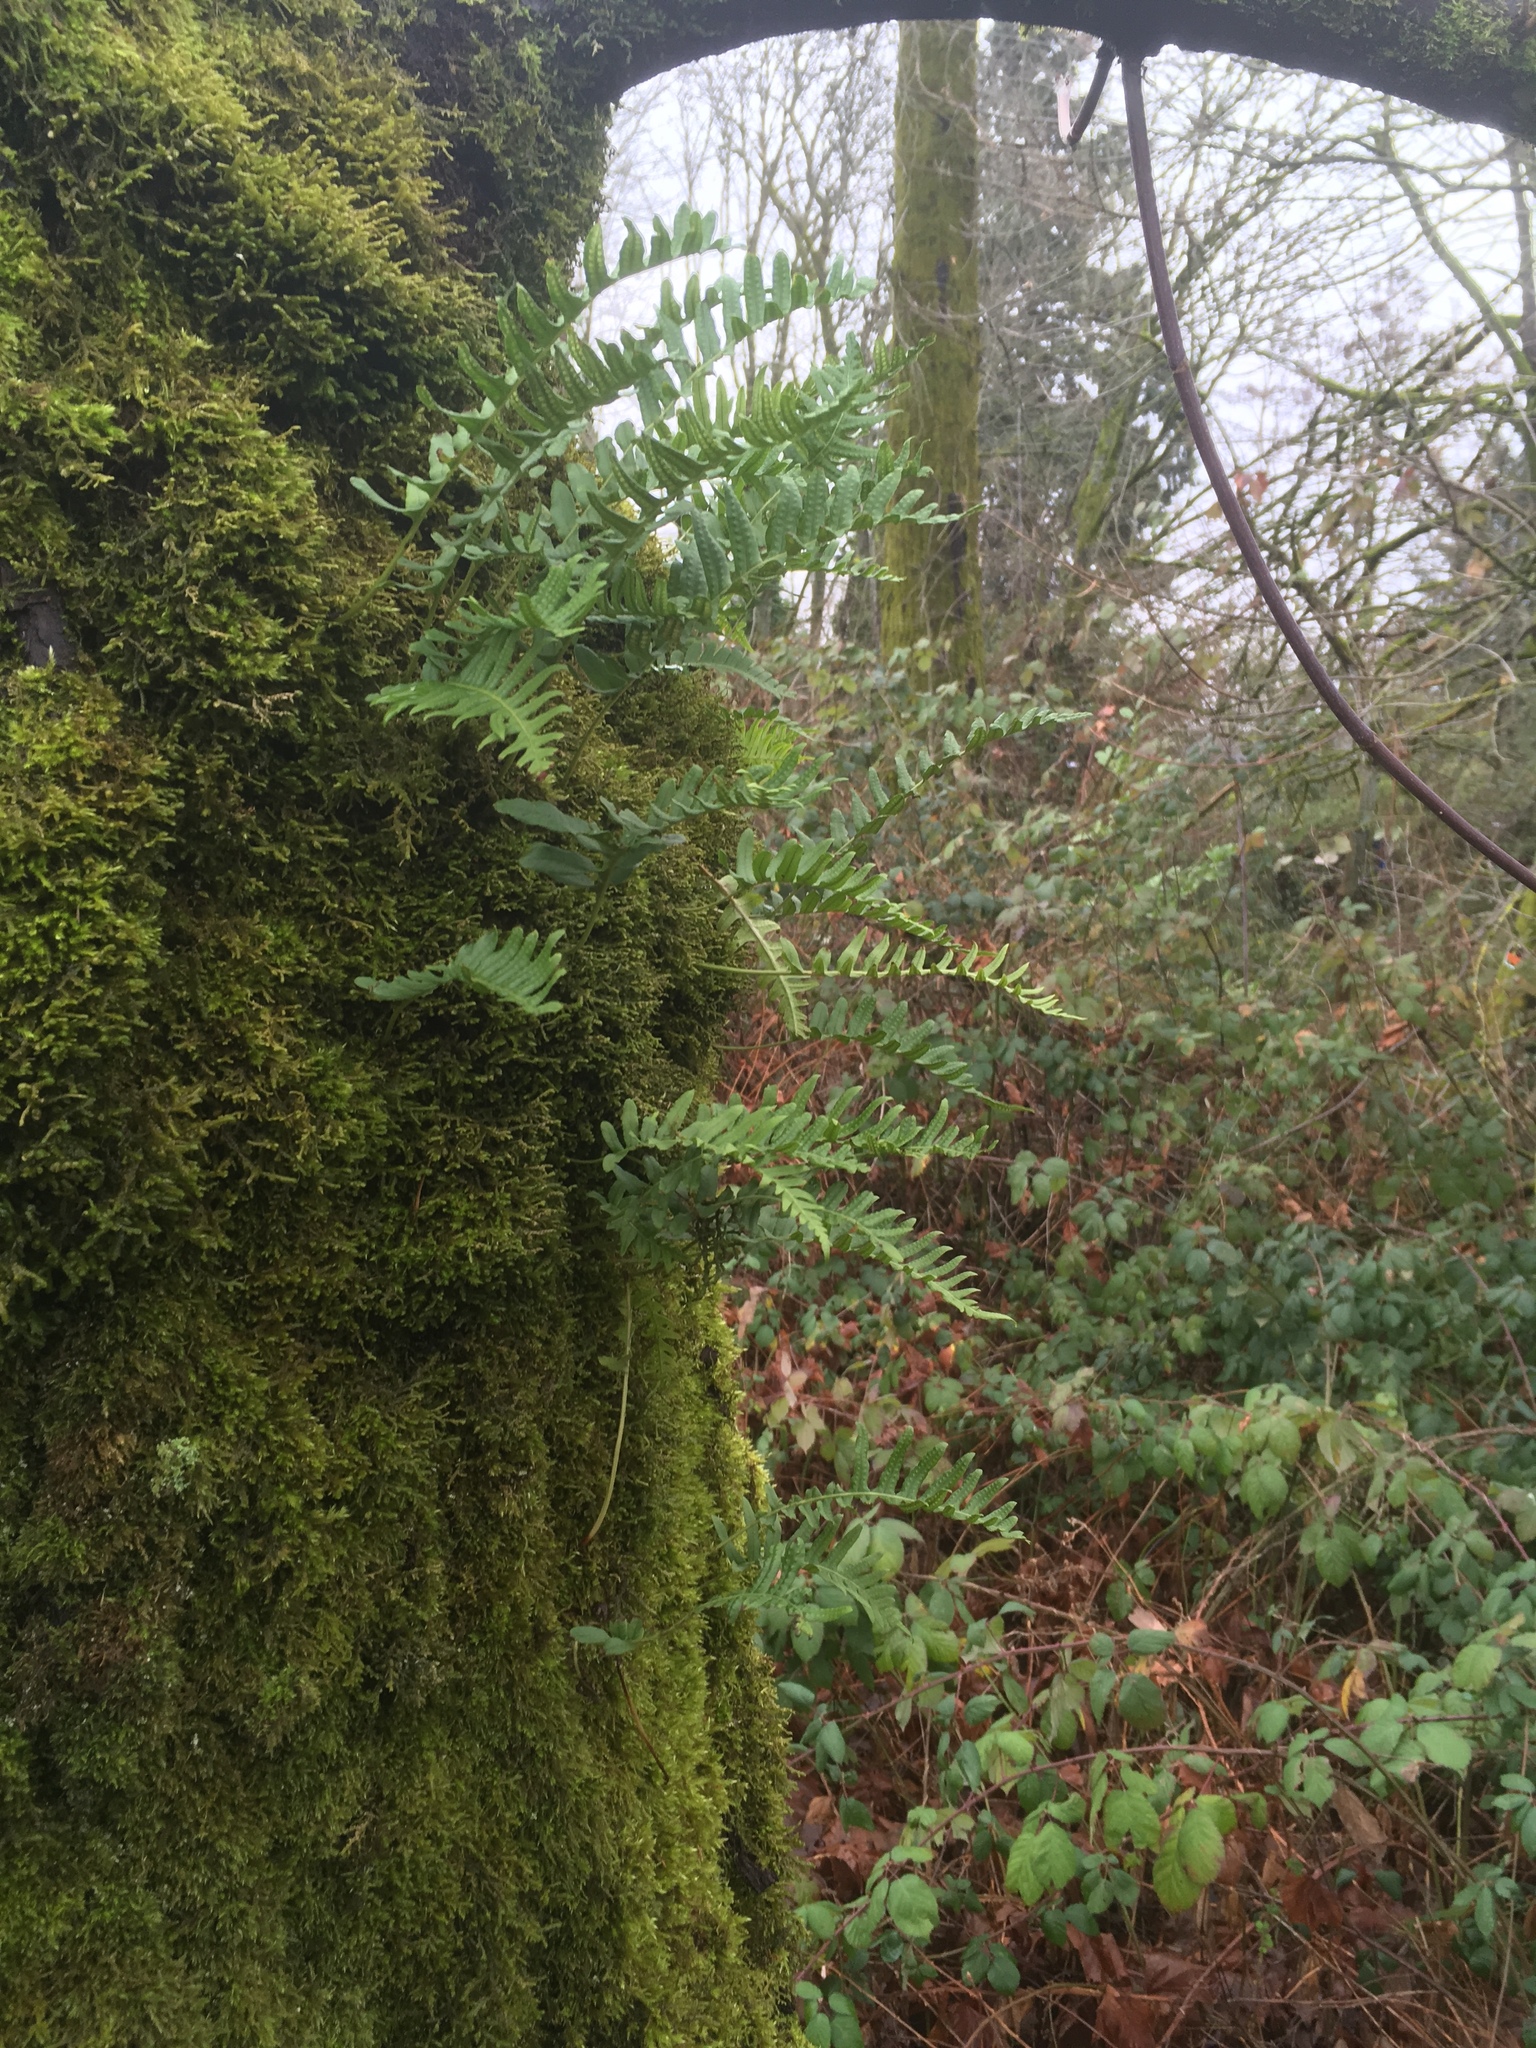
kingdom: Plantae
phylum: Tracheophyta
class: Polypodiopsida
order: Polypodiales
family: Polypodiaceae
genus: Polypodium
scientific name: Polypodium glycyrrhiza
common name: Licorice fern
